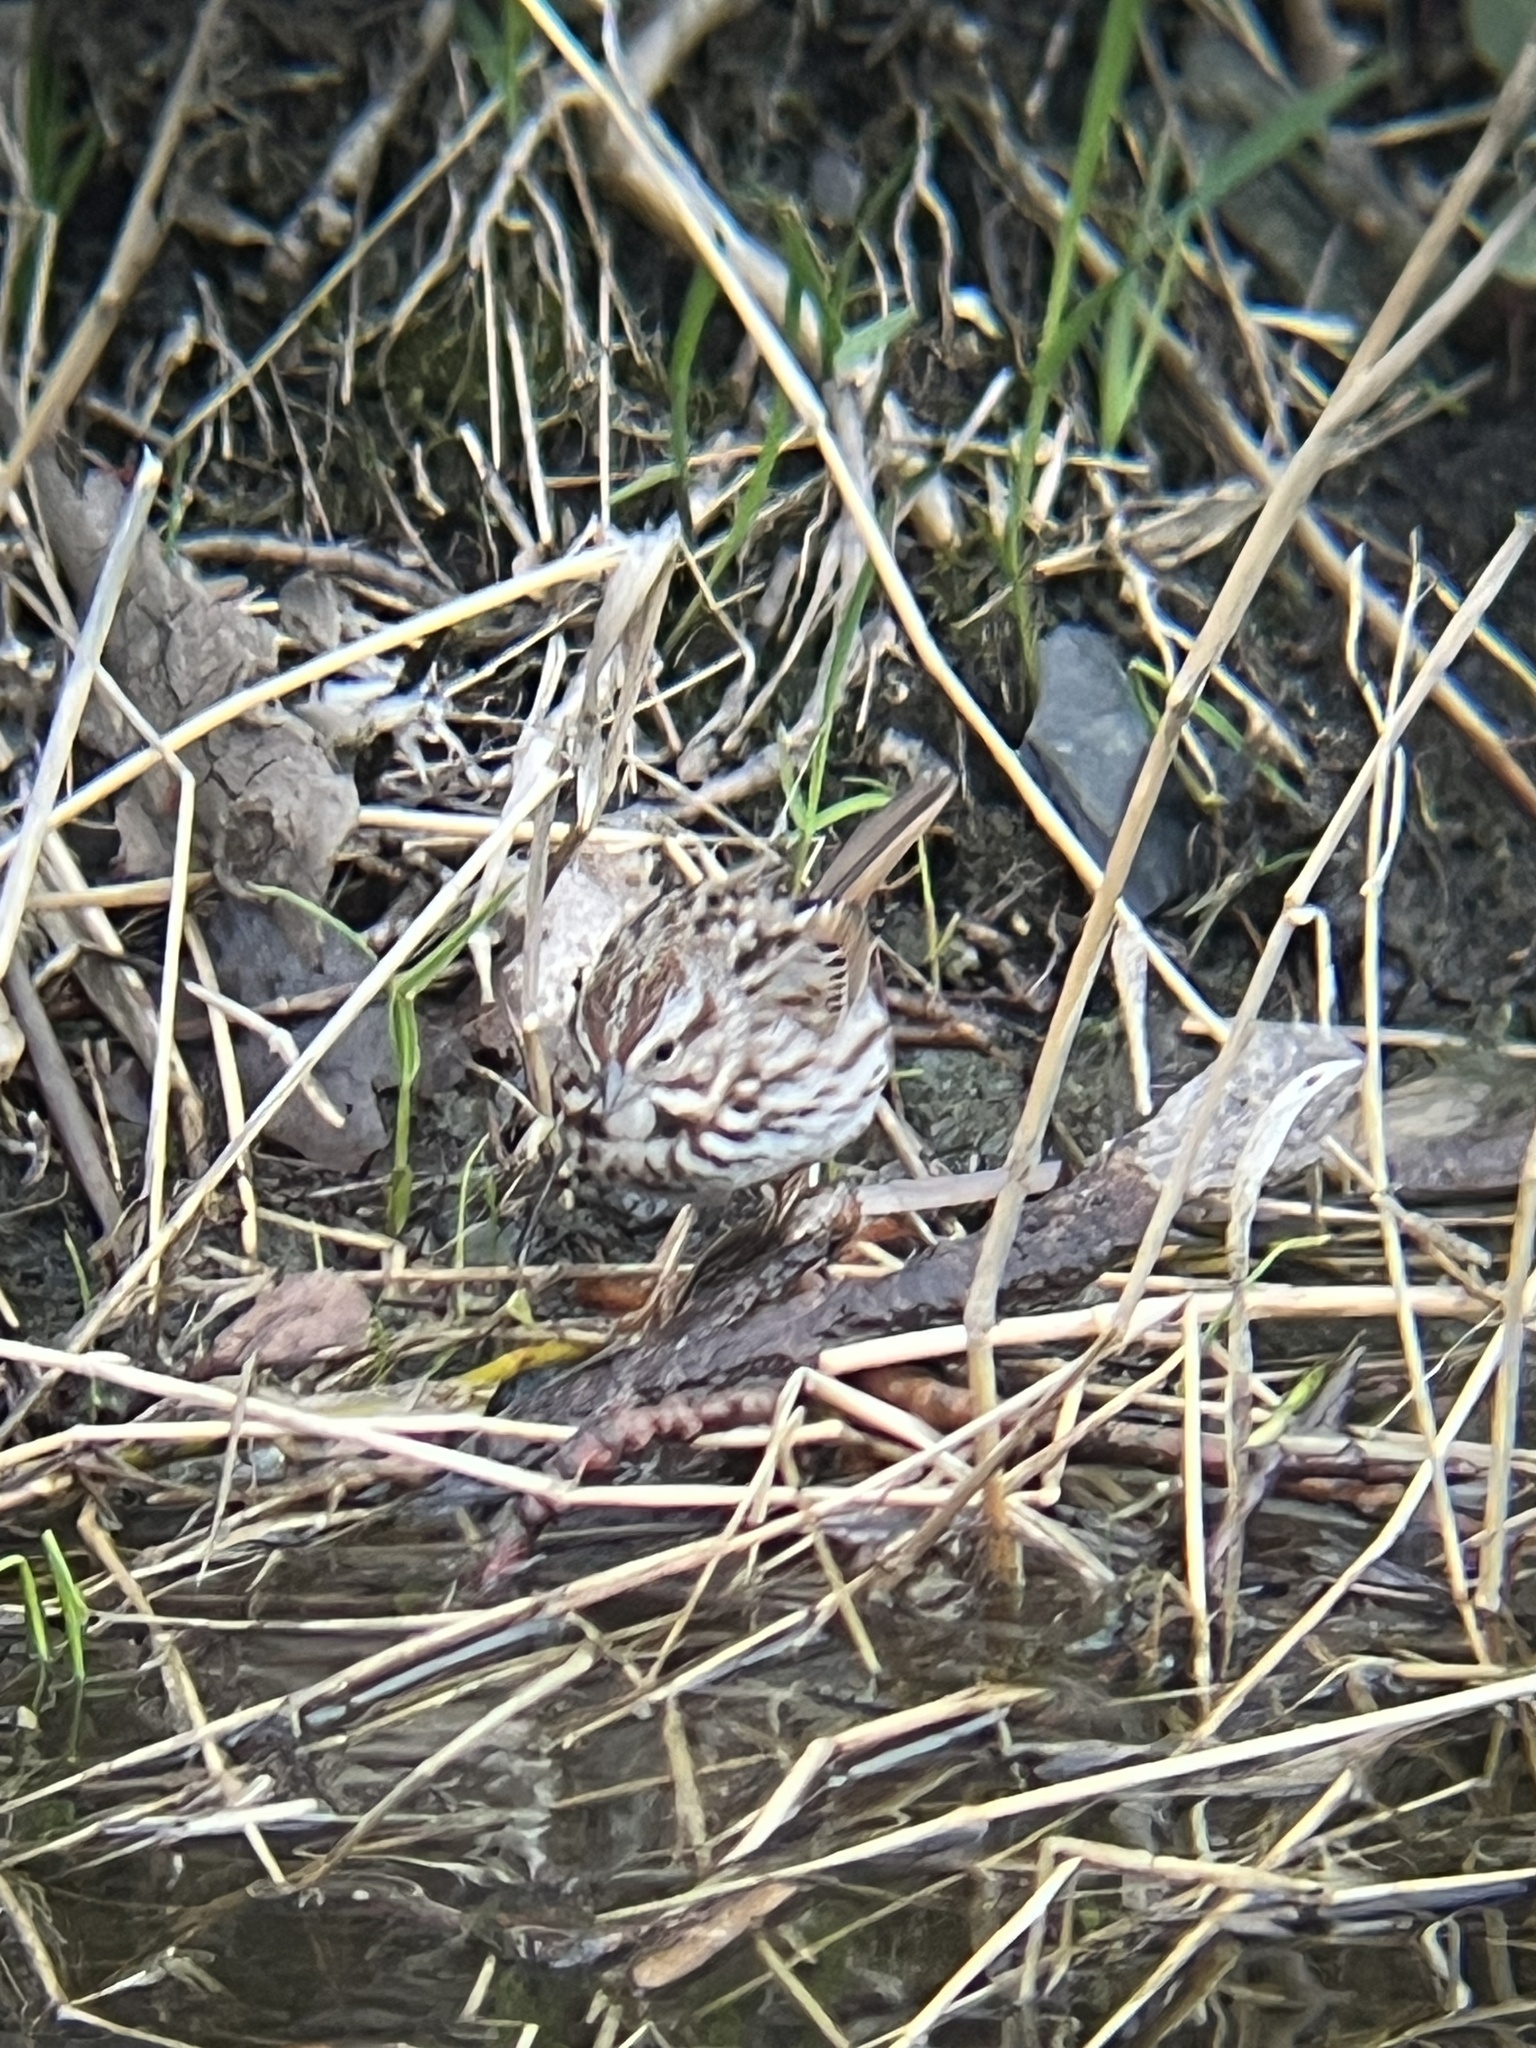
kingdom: Animalia
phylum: Chordata
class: Aves
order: Passeriformes
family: Passerellidae
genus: Melospiza
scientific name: Melospiza melodia
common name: Song sparrow
